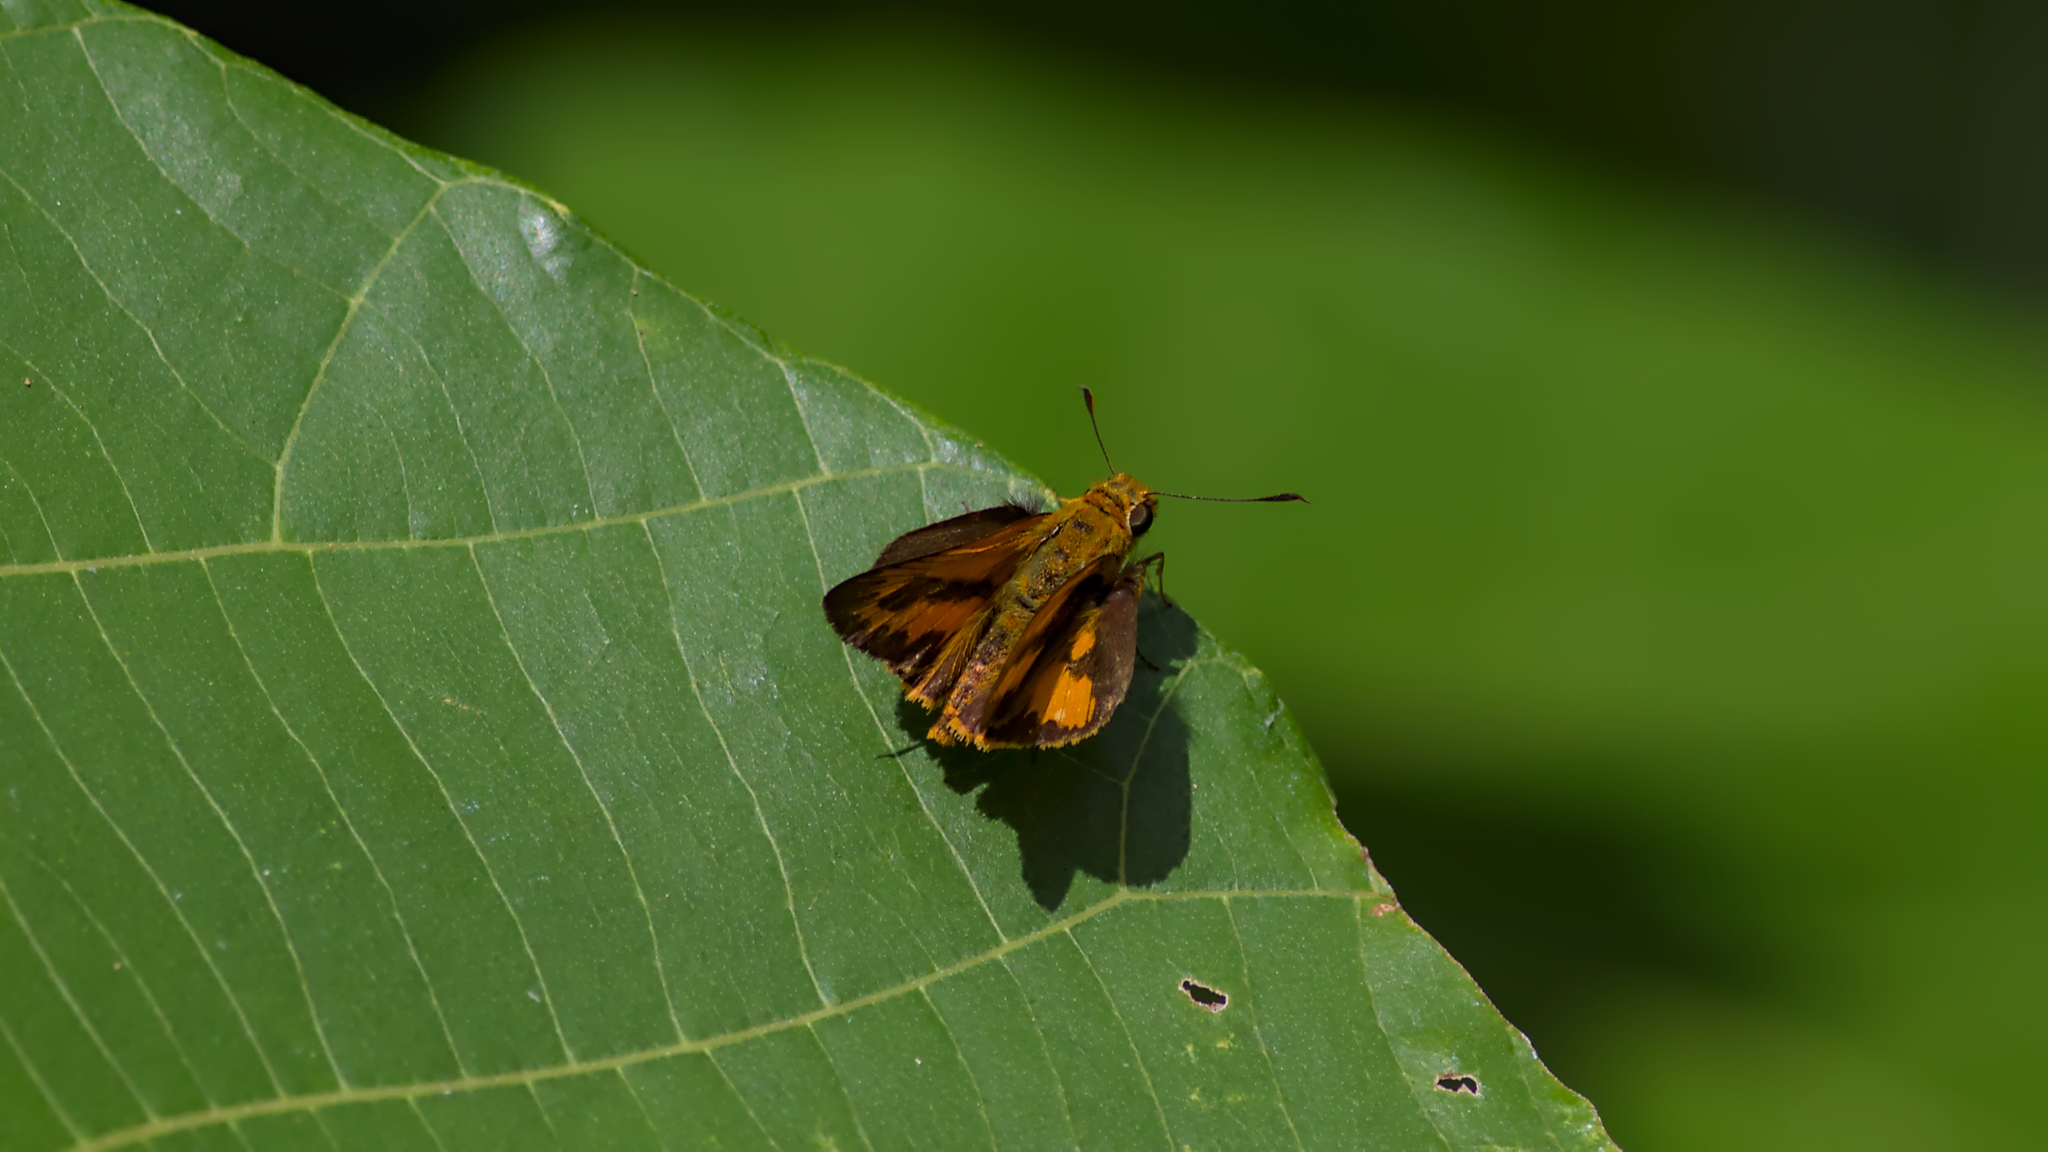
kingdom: Animalia
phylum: Arthropoda
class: Insecta
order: Lepidoptera
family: Hesperiidae
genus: Telicota
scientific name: Telicota augias
